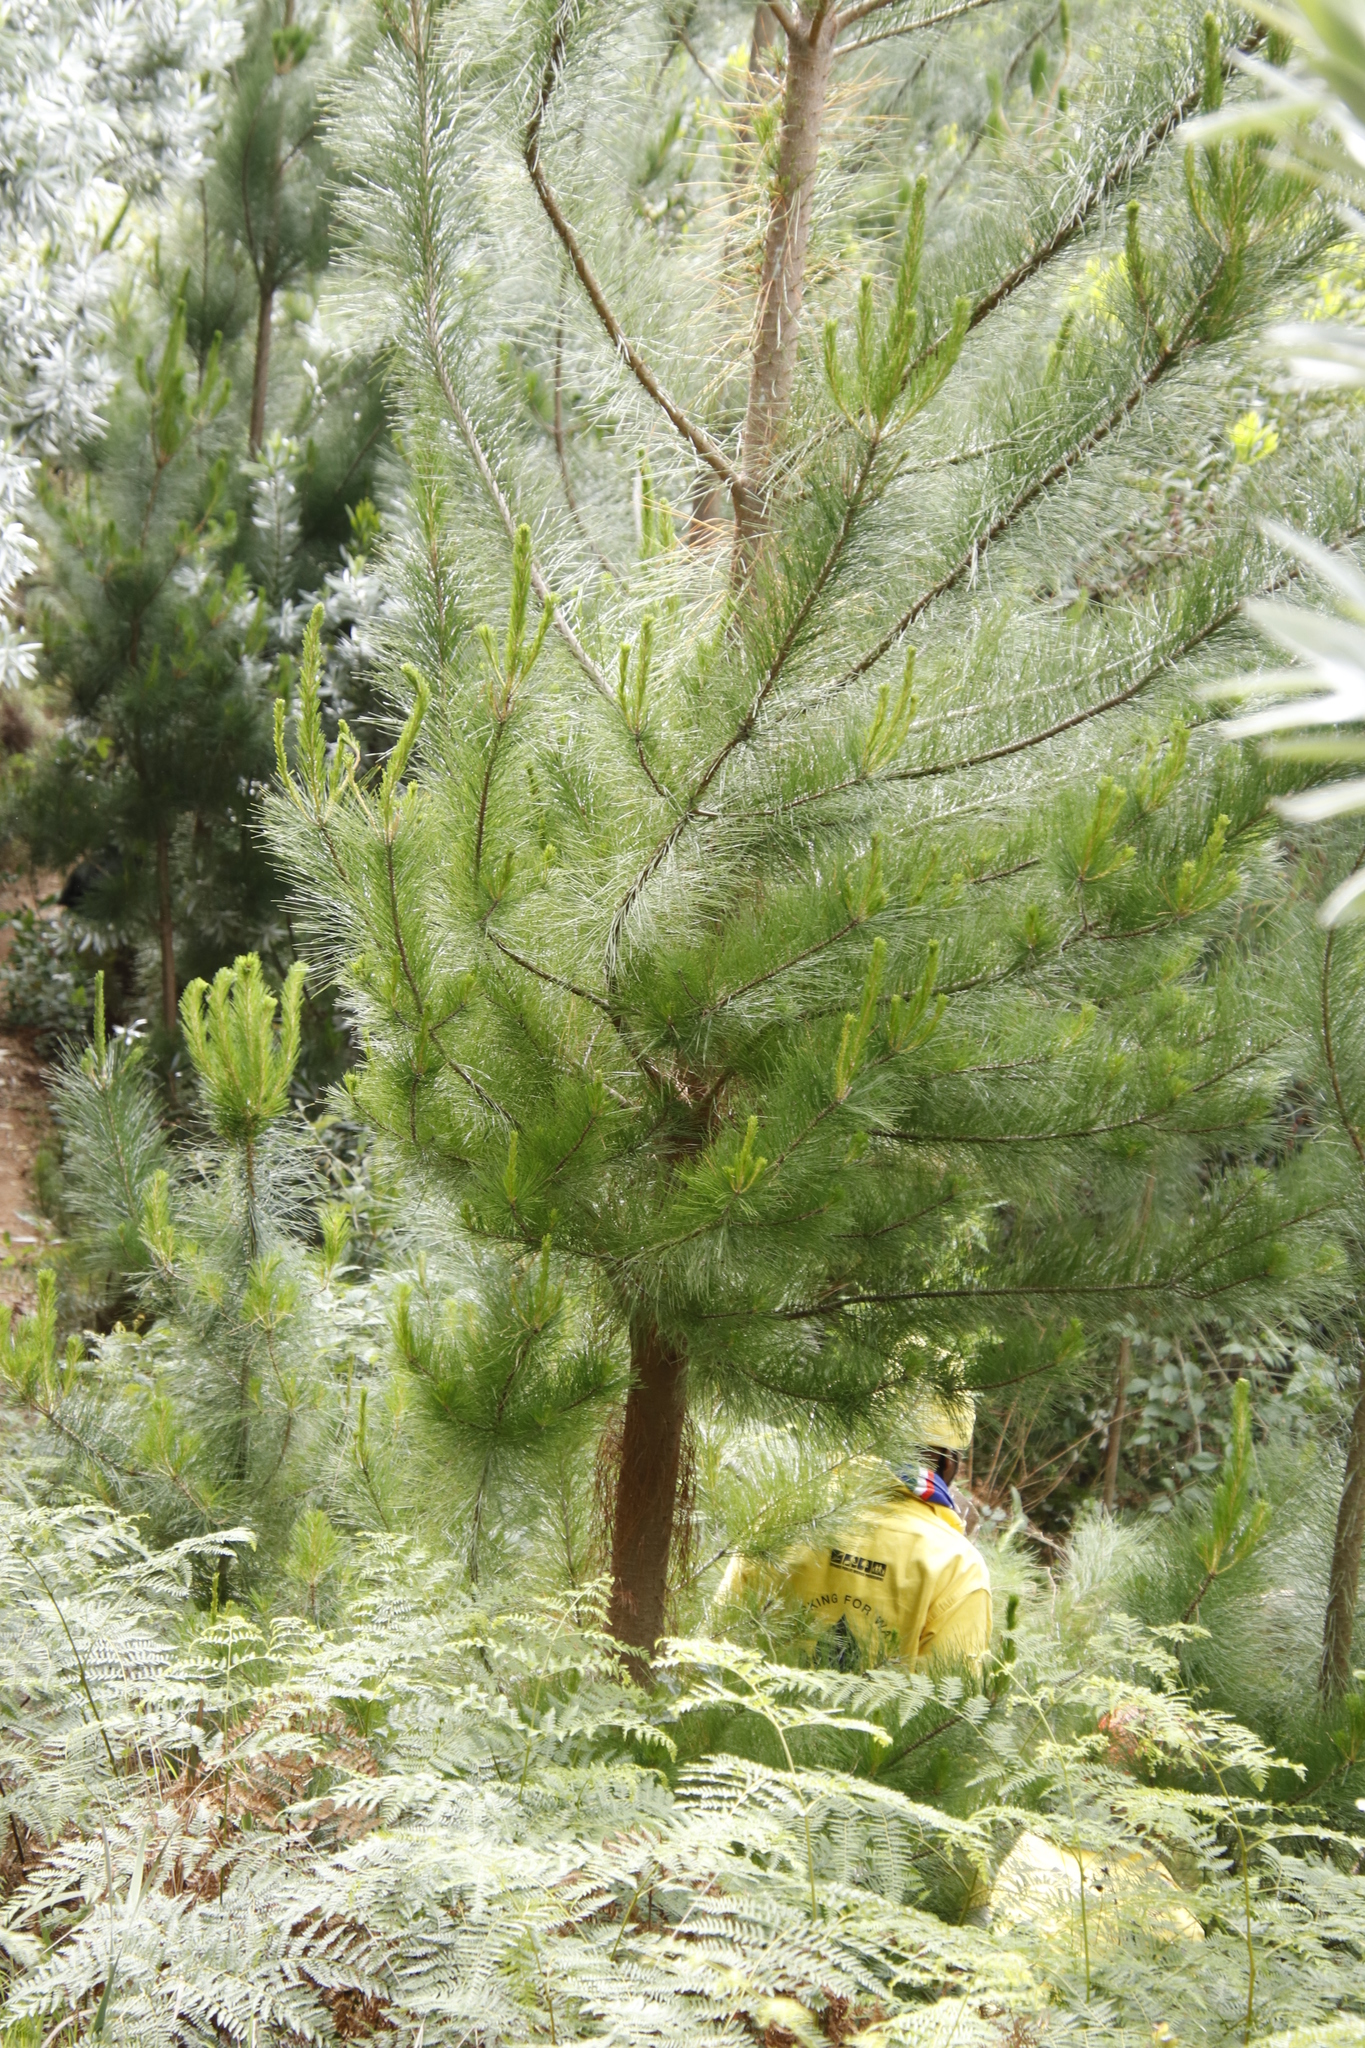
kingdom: Plantae
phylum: Tracheophyta
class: Pinopsida
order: Pinales
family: Pinaceae
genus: Pinus
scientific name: Pinus radiata
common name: Monterey pine
